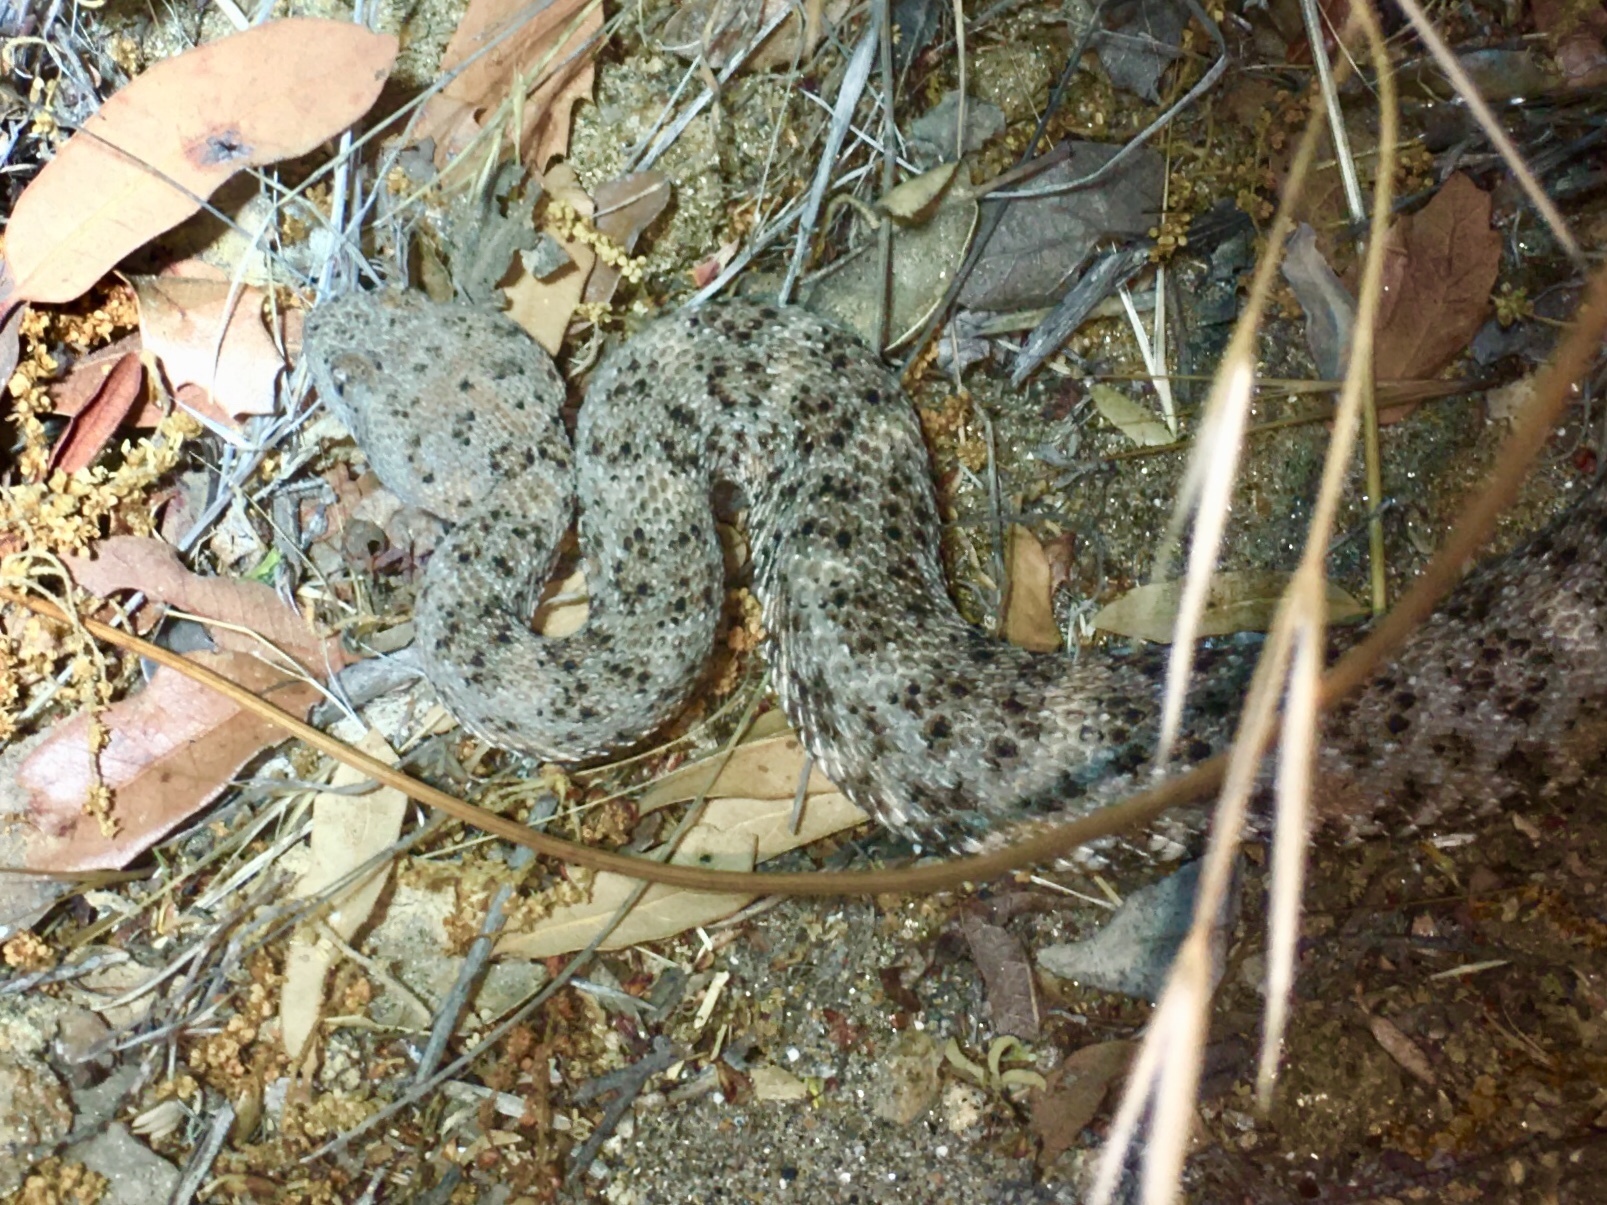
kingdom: Animalia
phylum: Chordata
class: Squamata
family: Viperidae
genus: Crotalus
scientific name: Crotalus pyrrhus
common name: Southwestern speckled rattlesnake
